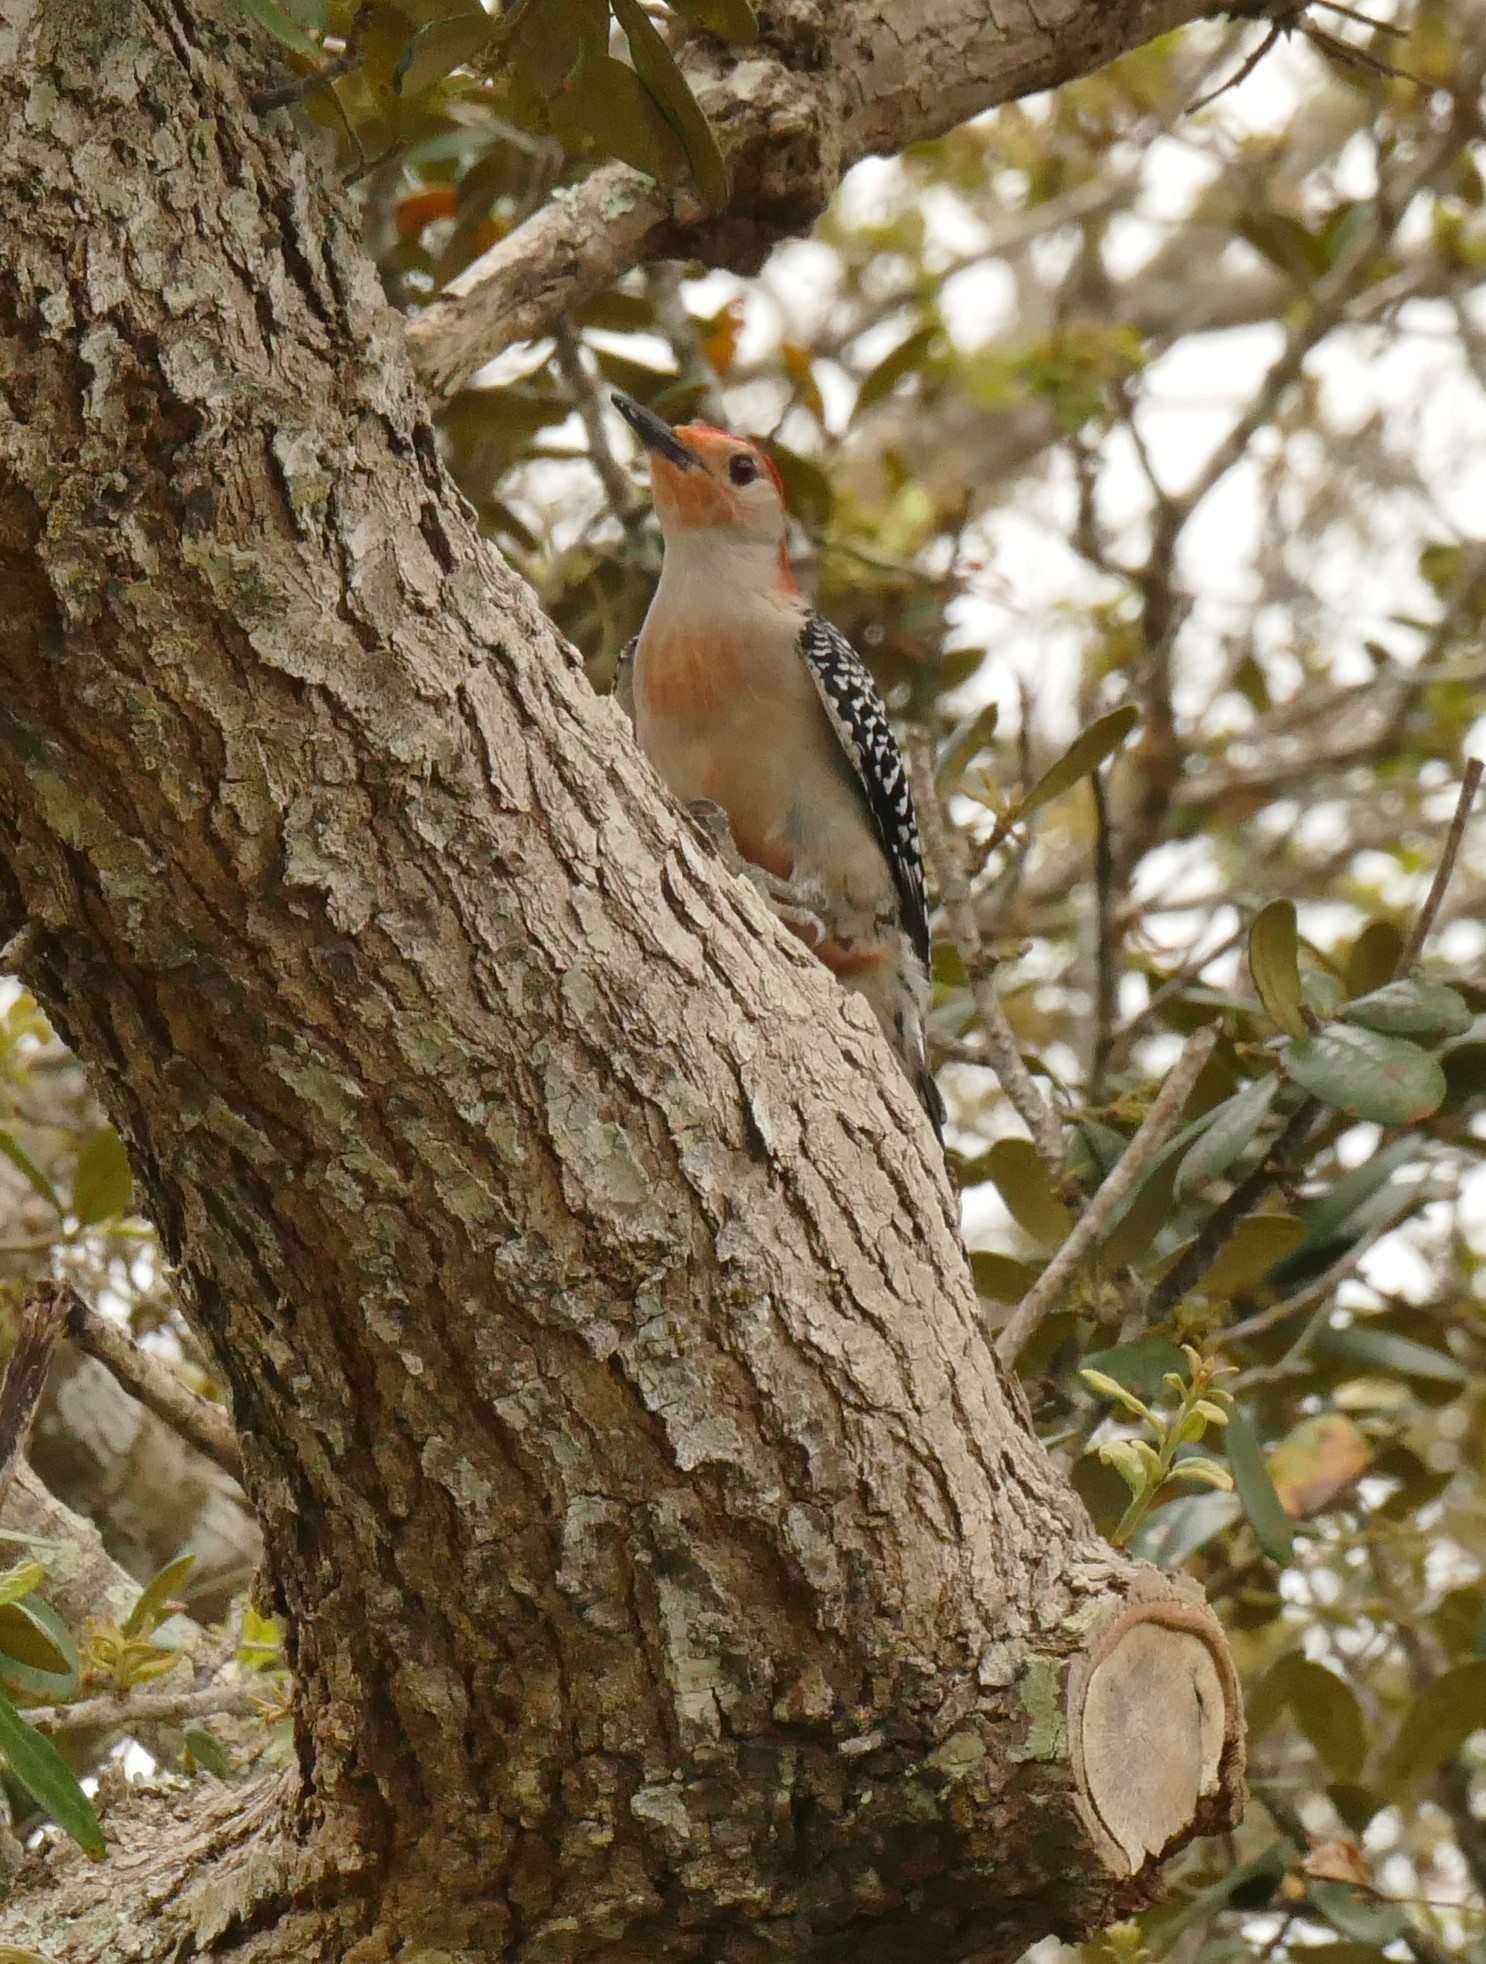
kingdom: Animalia
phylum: Chordata
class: Aves
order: Piciformes
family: Picidae
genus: Melanerpes
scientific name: Melanerpes carolinus
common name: Red-bellied woodpecker
